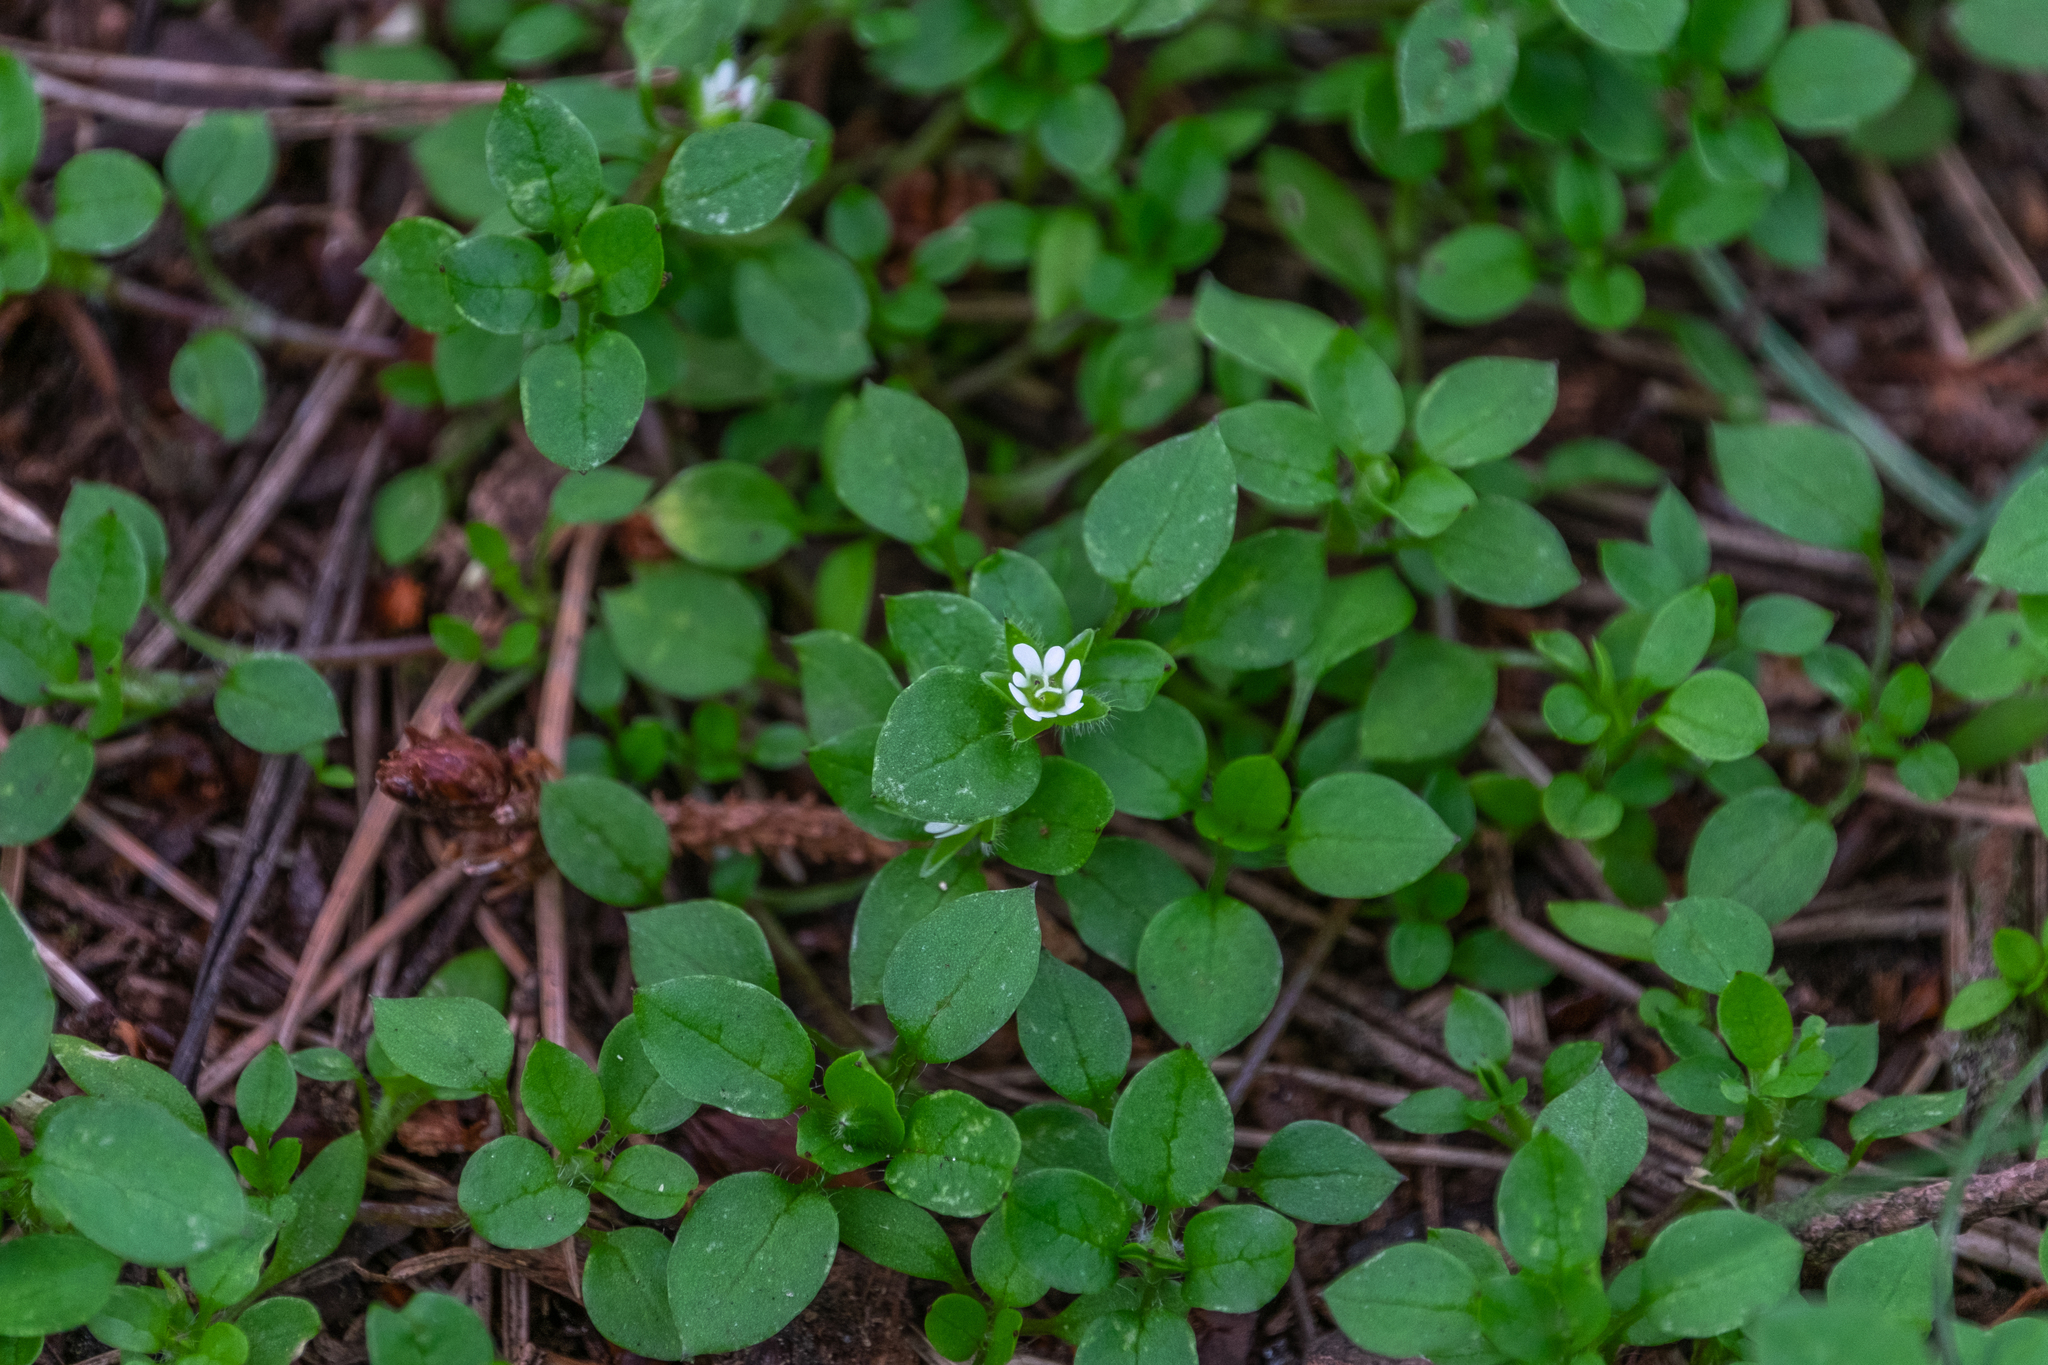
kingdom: Plantae
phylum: Tracheophyta
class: Magnoliopsida
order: Caryophyllales
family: Caryophyllaceae
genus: Stellaria
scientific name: Stellaria media
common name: Common chickweed
